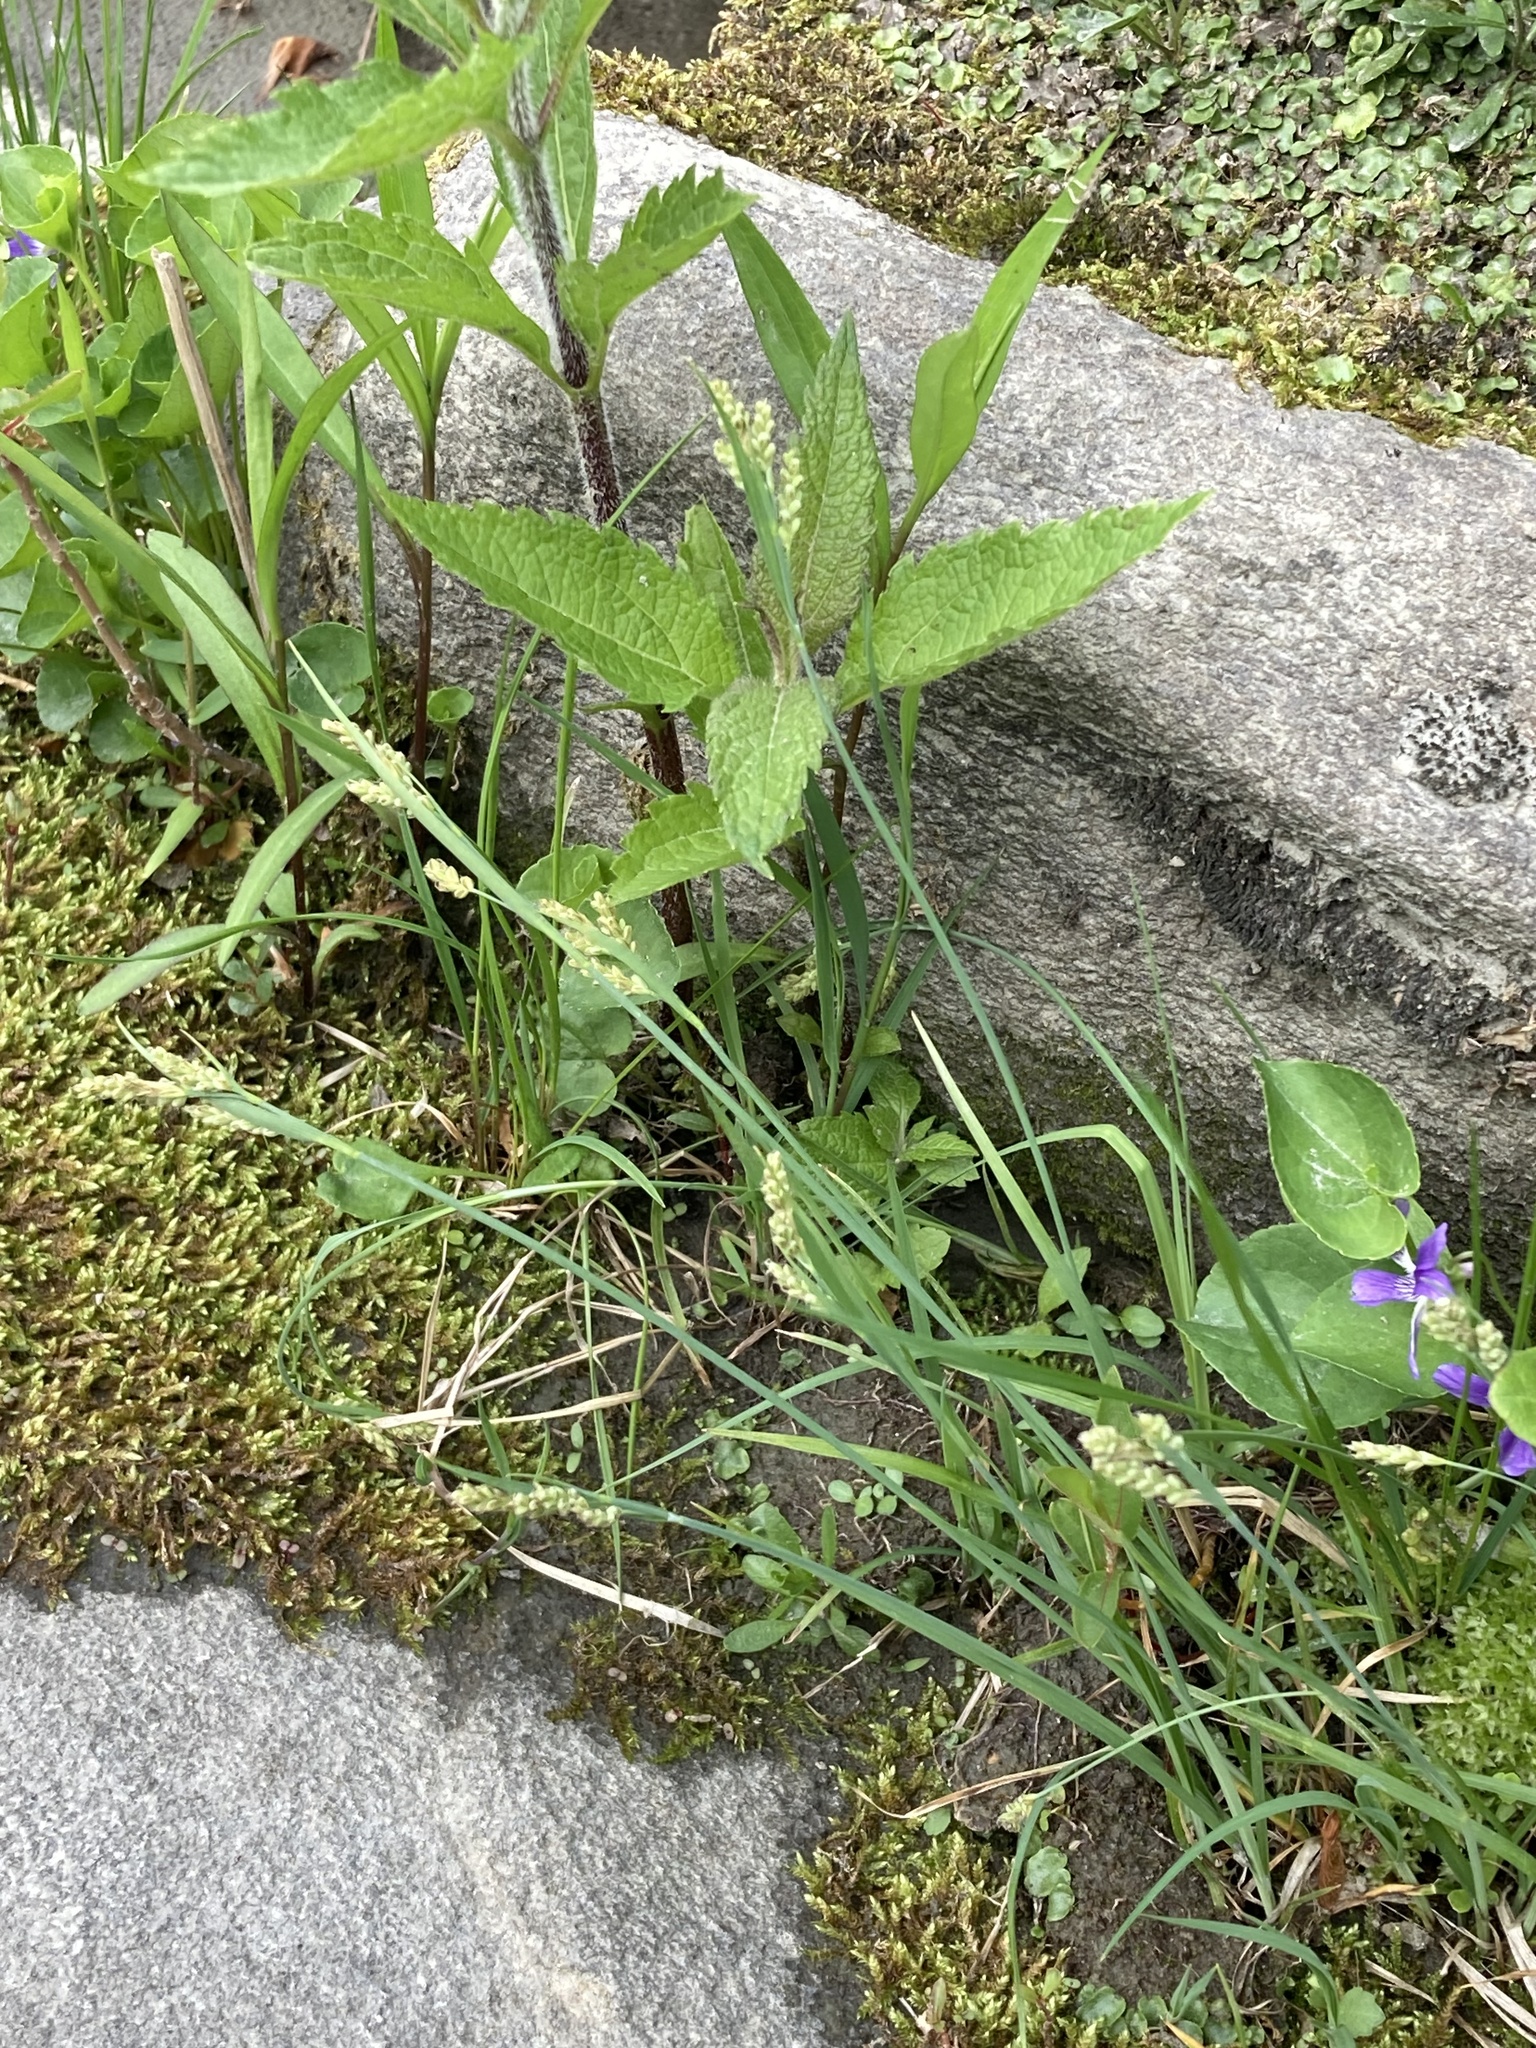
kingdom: Plantae
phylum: Tracheophyta
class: Liliopsida
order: Poales
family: Cyperaceae
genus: Carex
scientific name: Carex garberi
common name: Elk sedge
